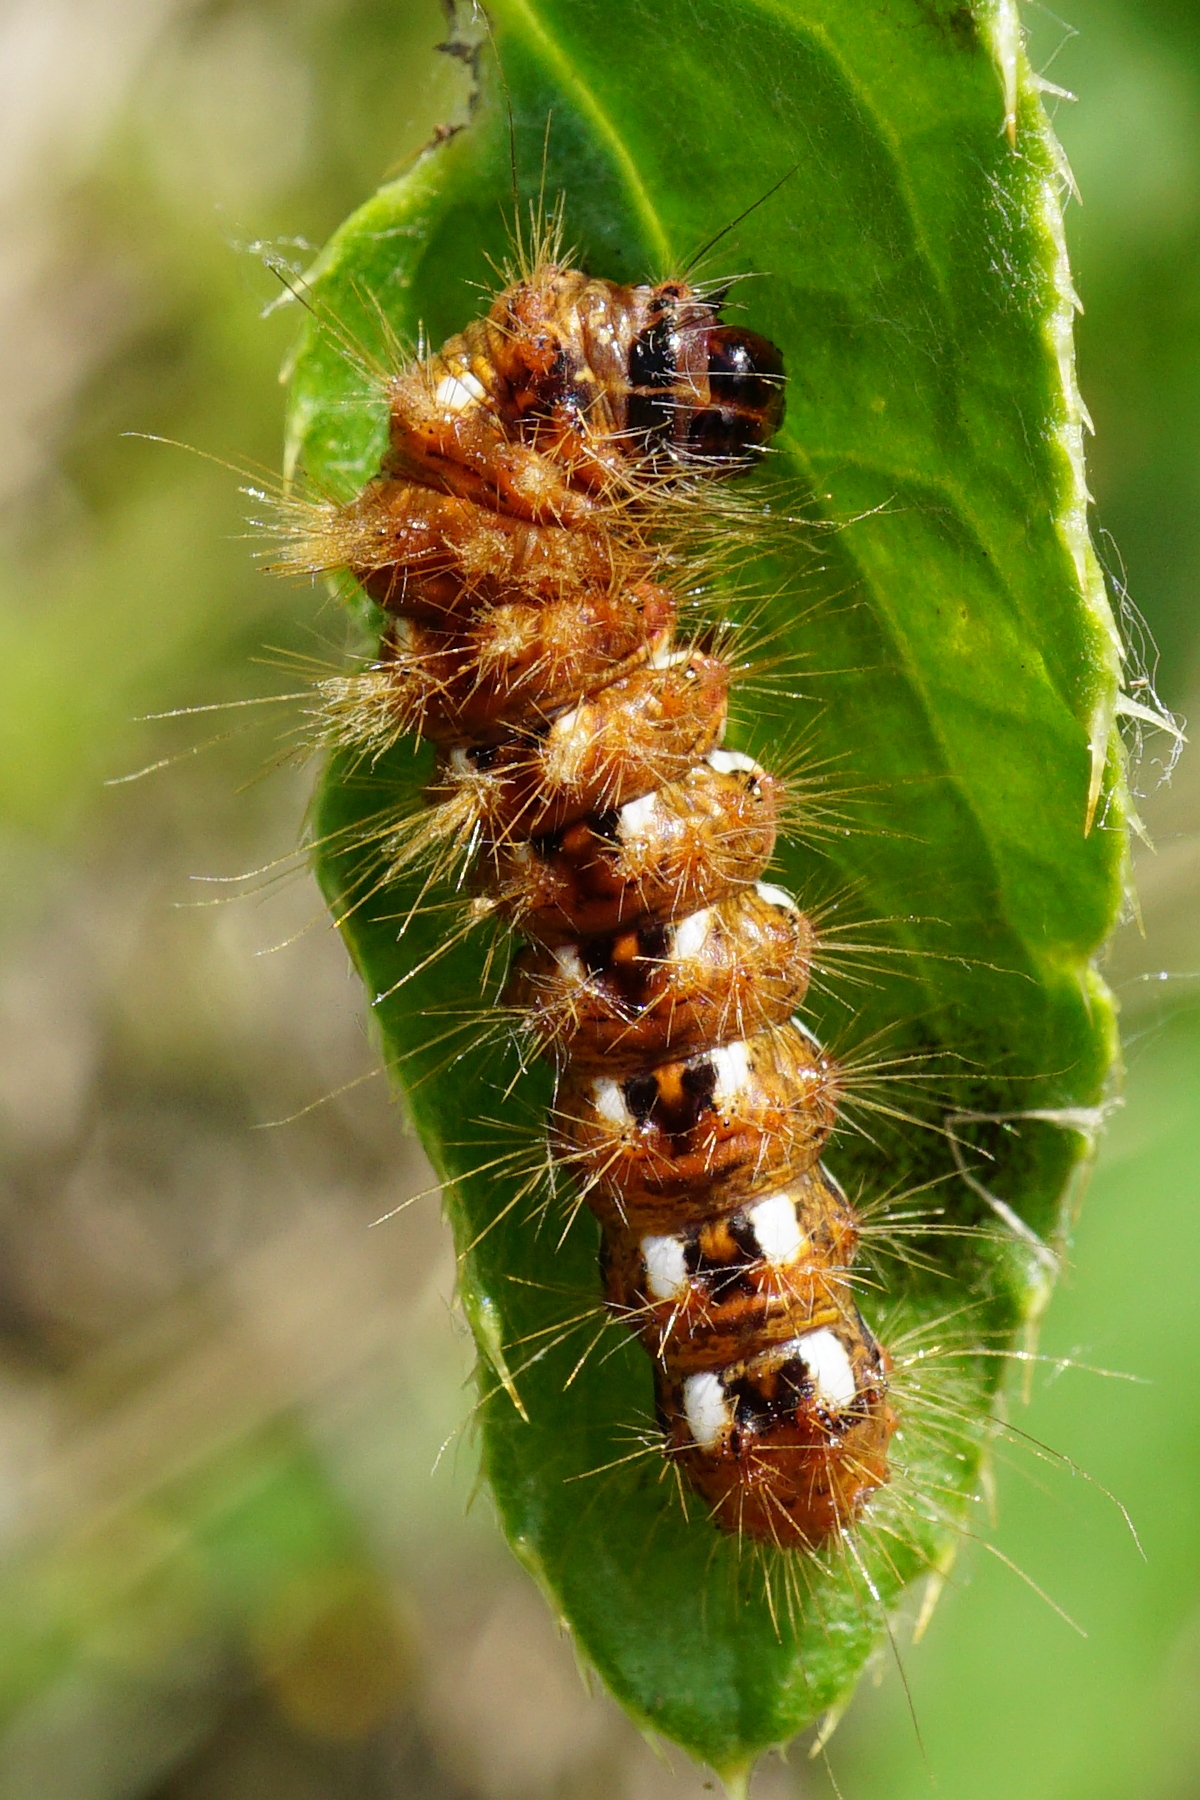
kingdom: Animalia
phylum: Arthropoda
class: Insecta
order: Lepidoptera
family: Noctuidae
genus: Acronicta
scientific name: Acronicta rumicis
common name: Knot grass
